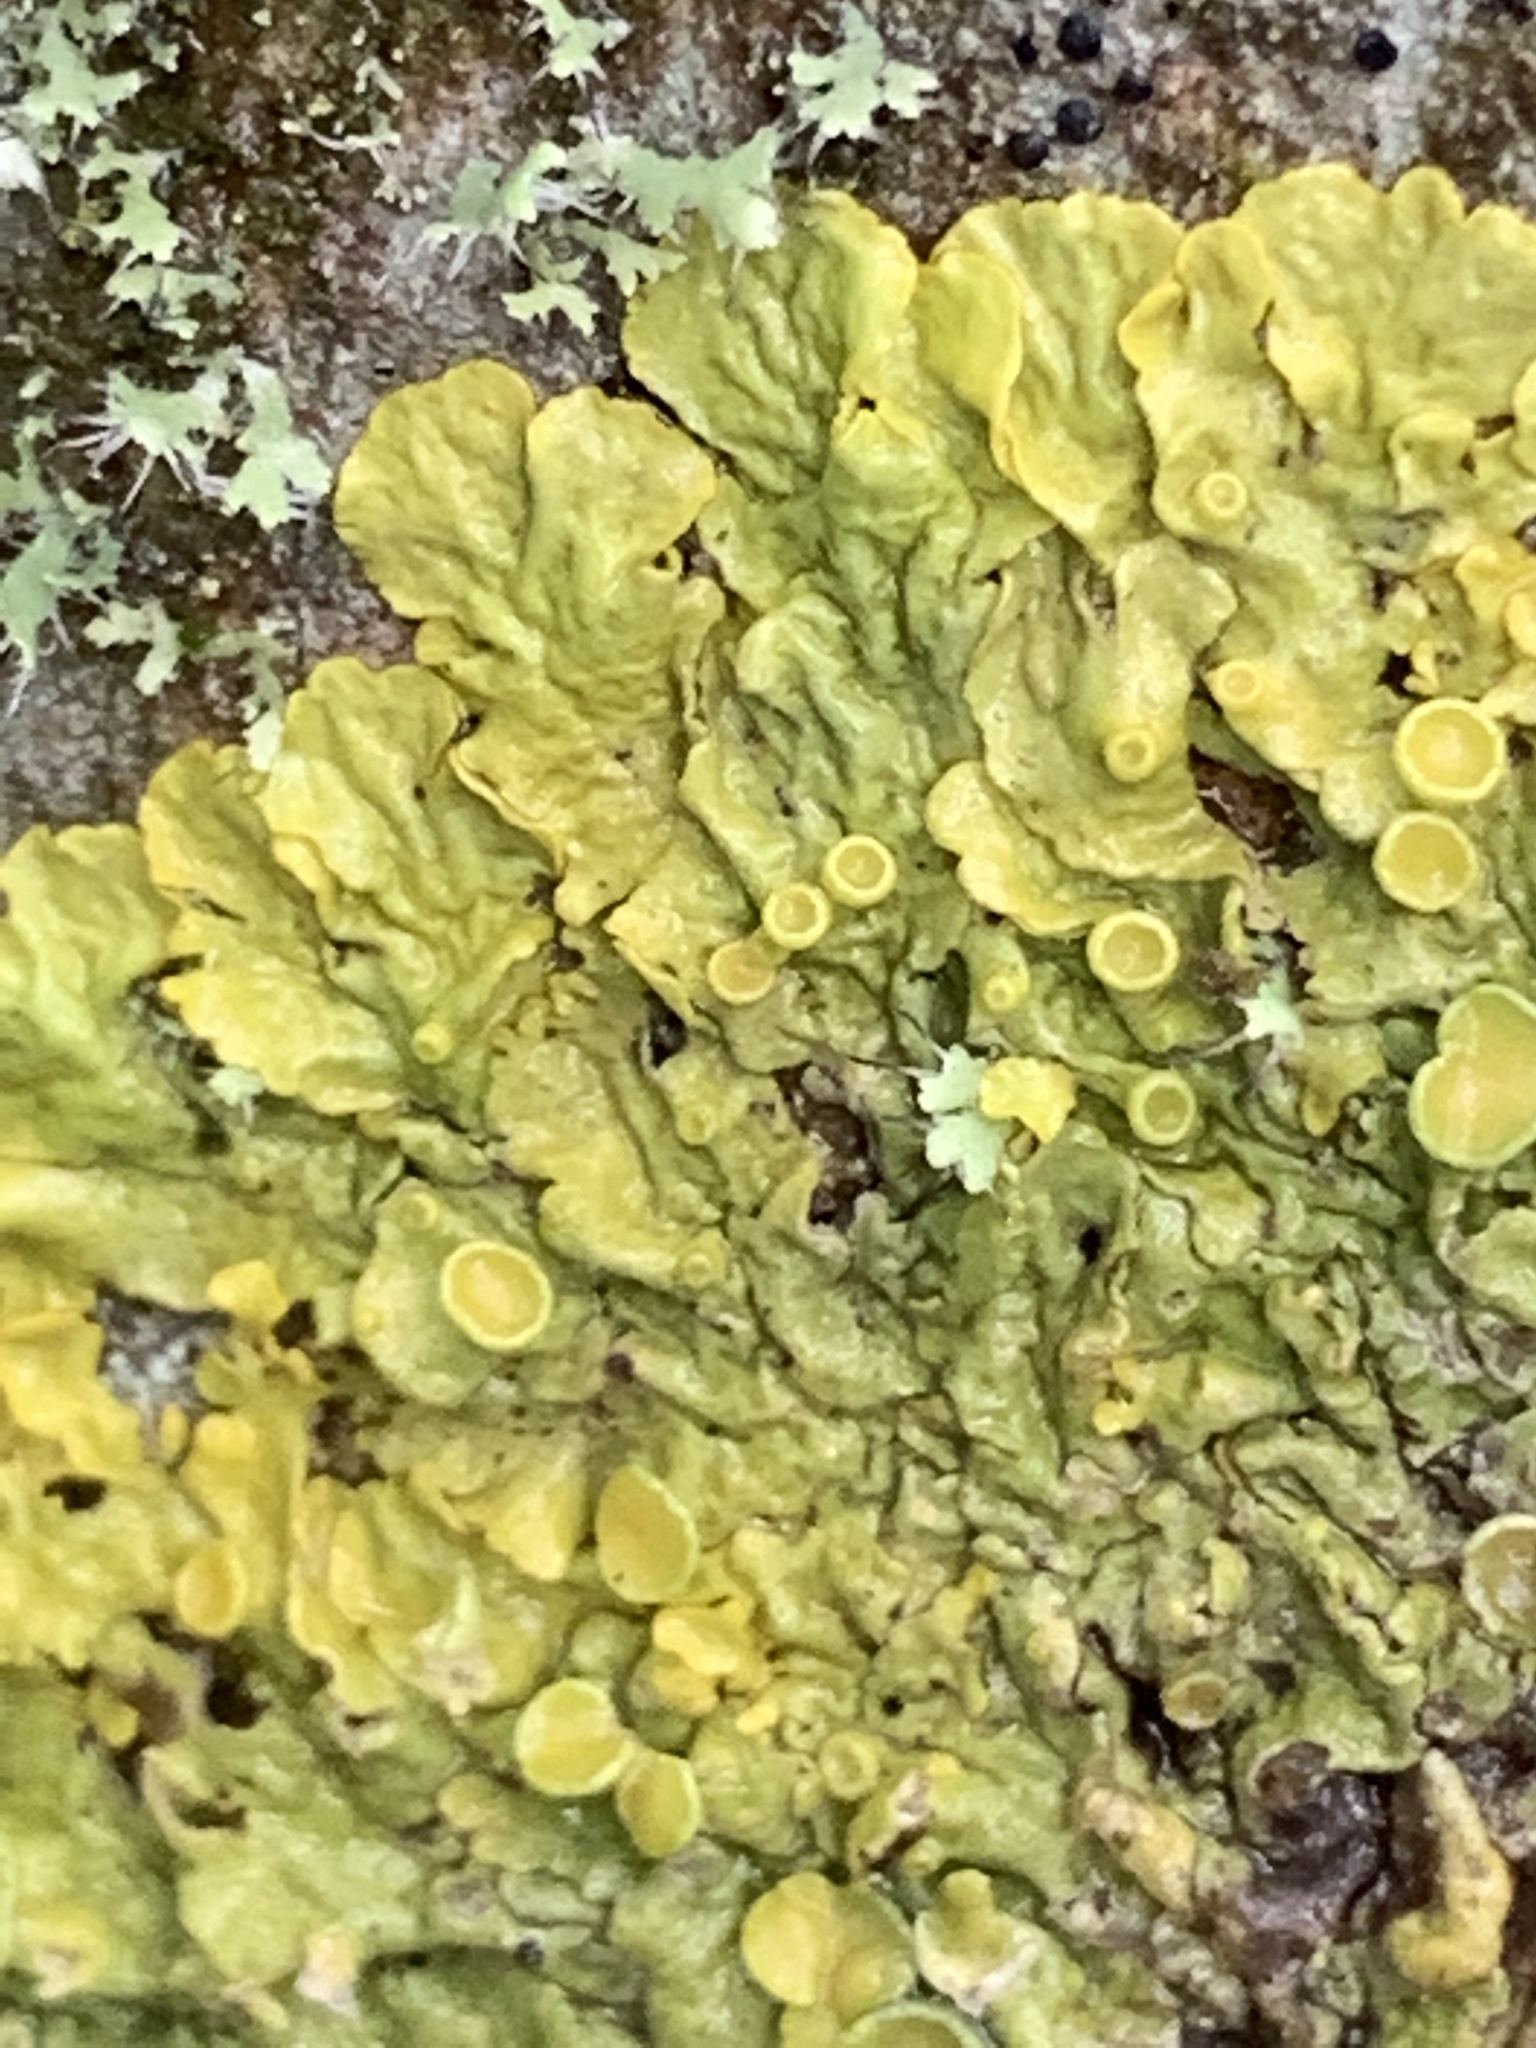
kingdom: Fungi
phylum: Ascomycota
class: Lecanoromycetes
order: Teloschistales
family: Teloschistaceae
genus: Xanthoria
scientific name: Xanthoria parietina
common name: Common orange lichen
